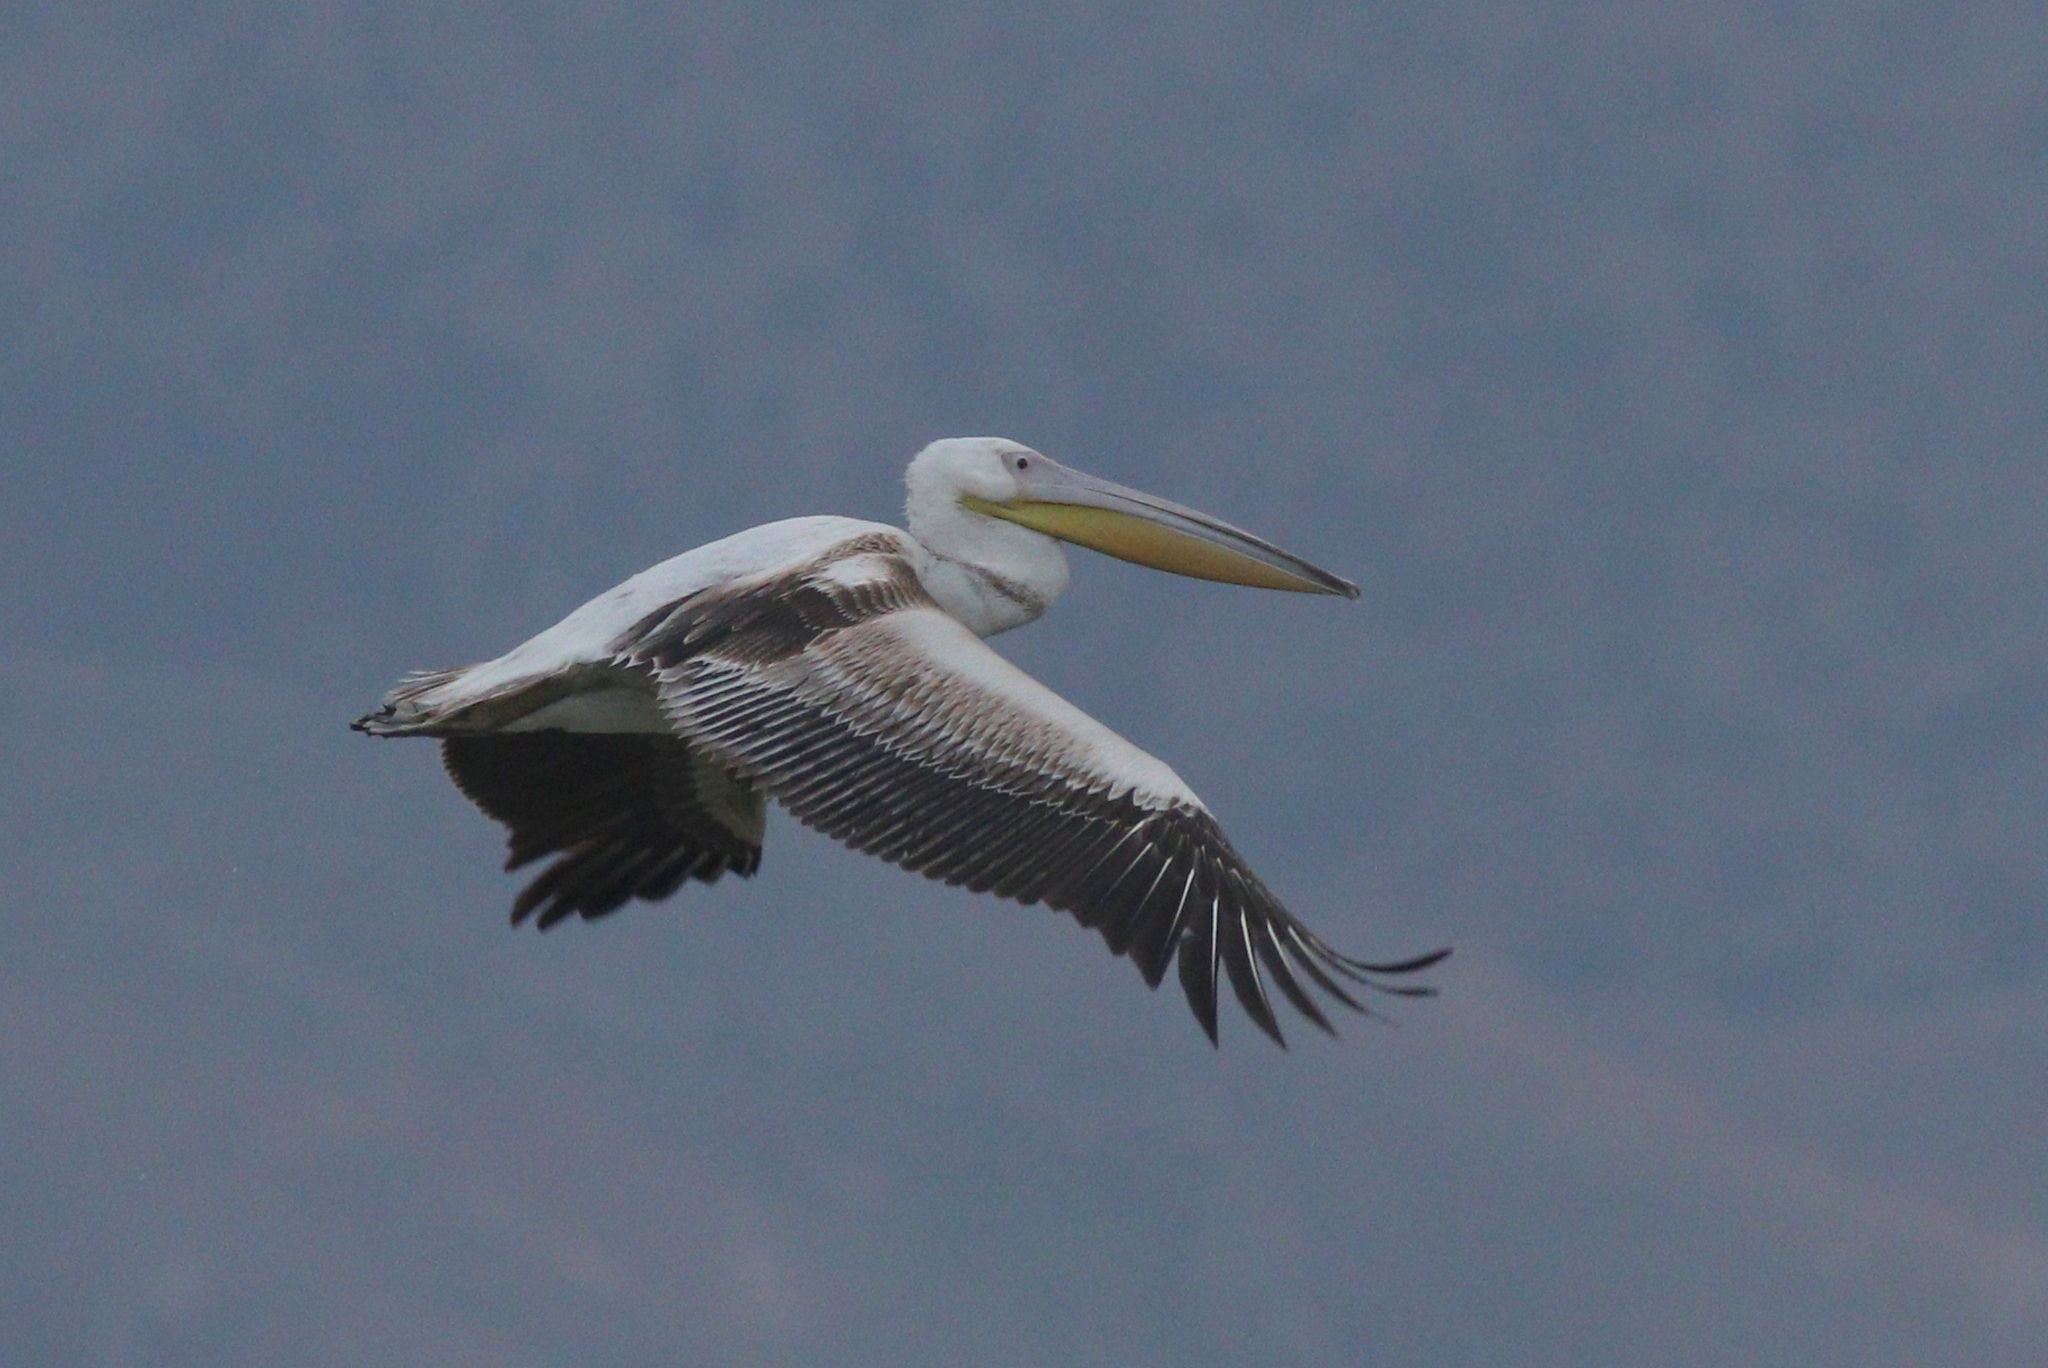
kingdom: Animalia
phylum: Chordata
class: Aves
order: Pelecaniformes
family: Pelecanidae
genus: Pelecanus
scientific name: Pelecanus onocrotalus
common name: Great white pelican
